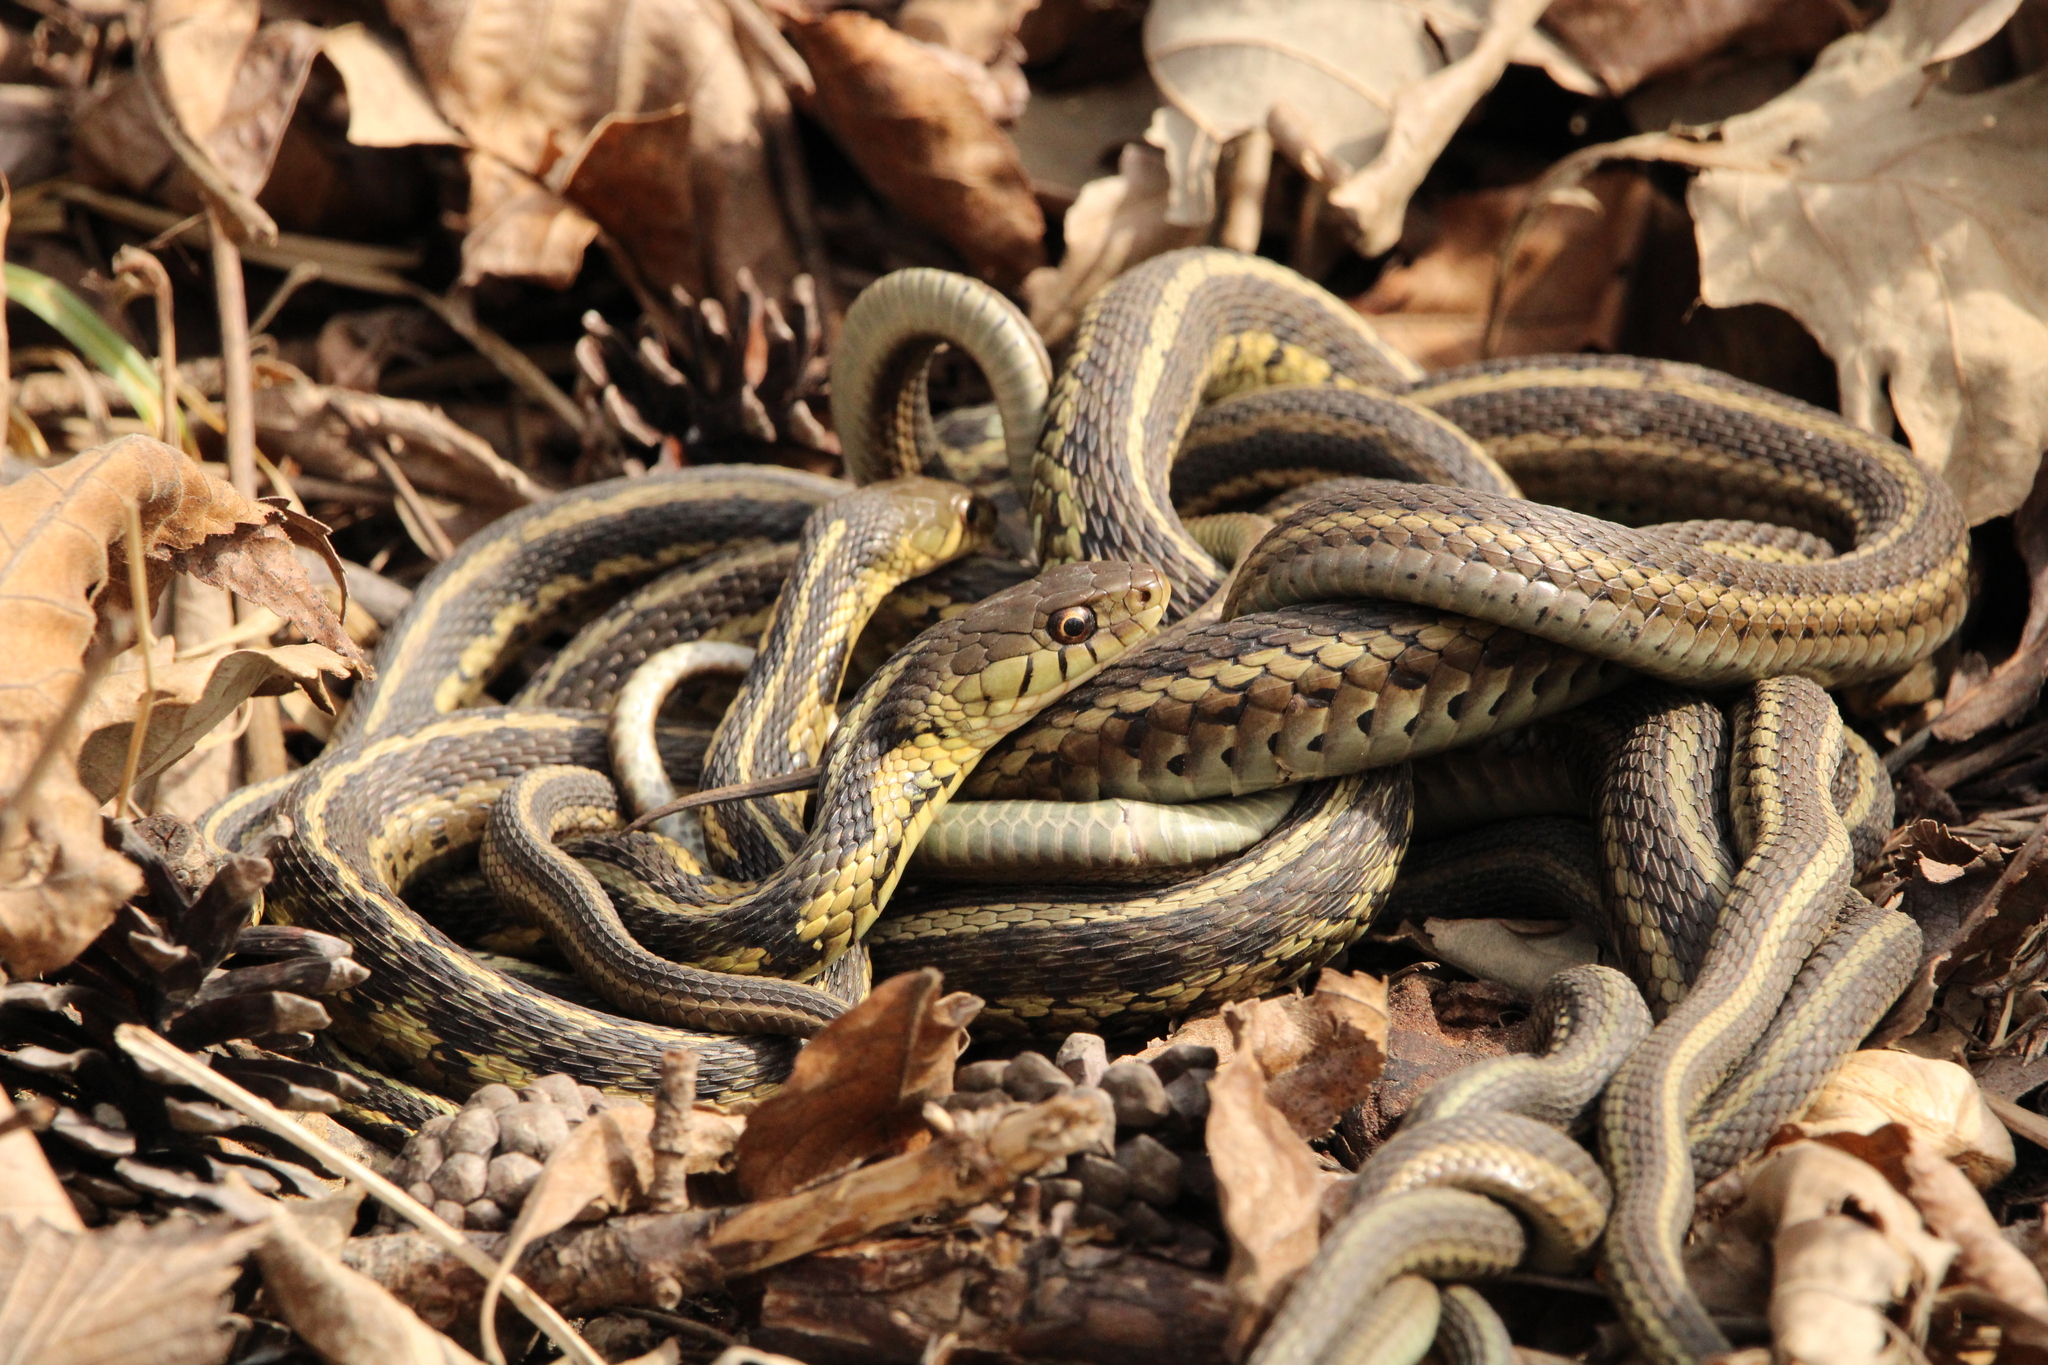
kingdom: Animalia
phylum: Chordata
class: Squamata
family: Colubridae
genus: Thamnophis
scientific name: Thamnophis sirtalis
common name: Common garter snake
